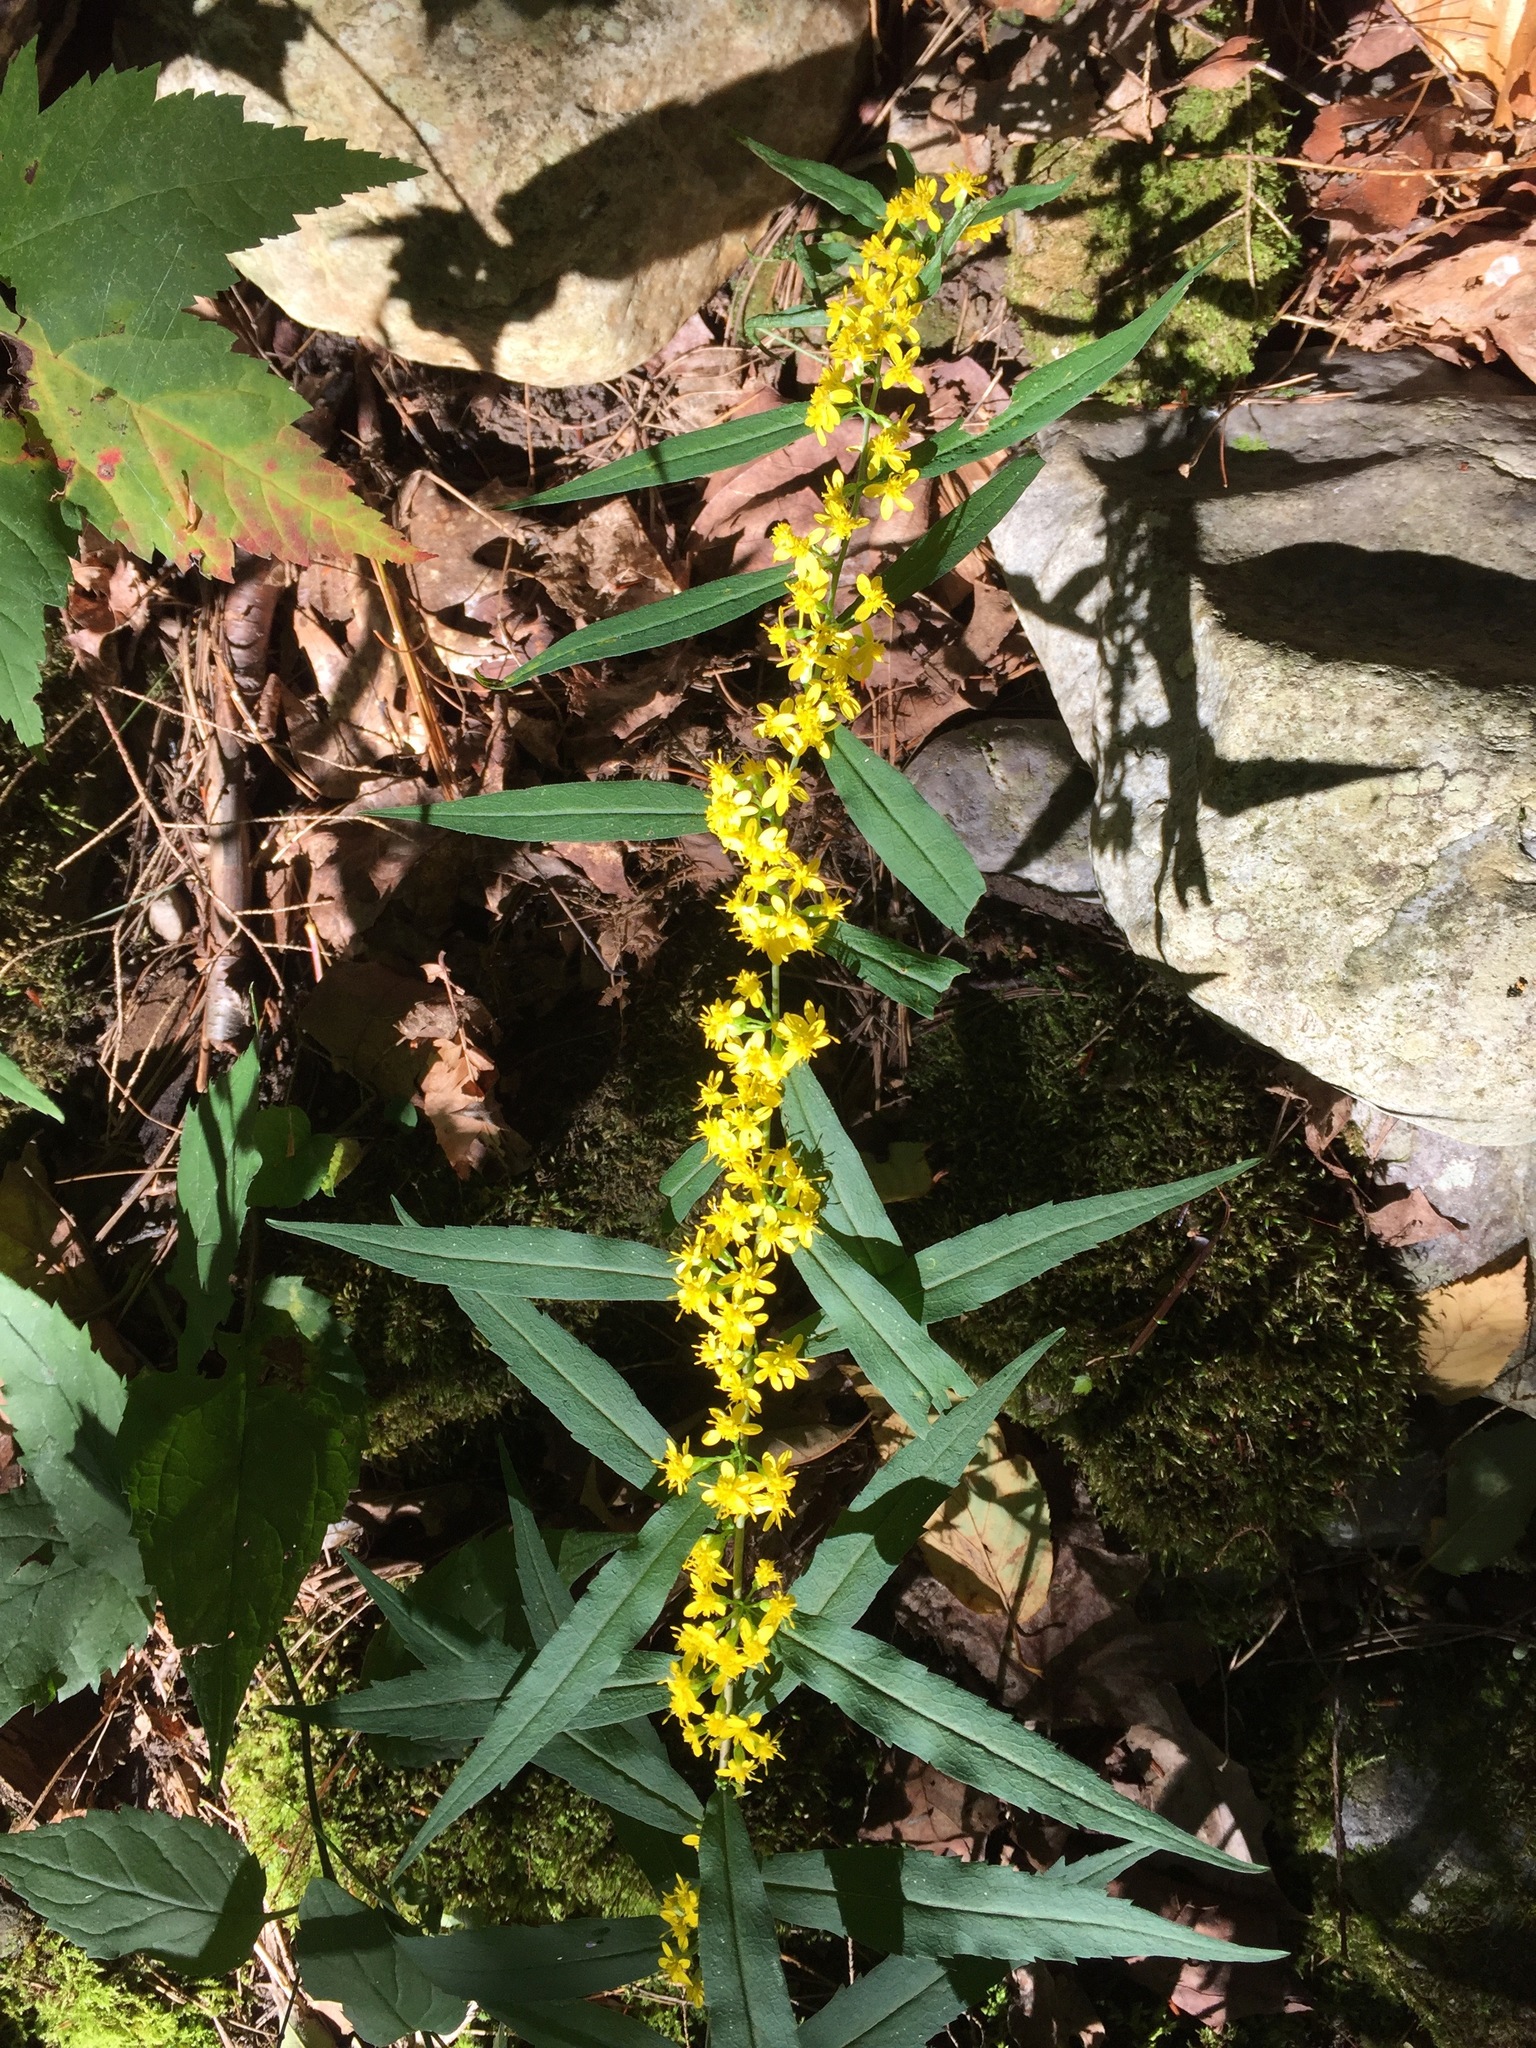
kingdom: Plantae
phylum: Tracheophyta
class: Magnoliopsida
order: Asterales
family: Asteraceae
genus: Solidago
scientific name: Solidago caesia
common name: Woodland goldenrod
